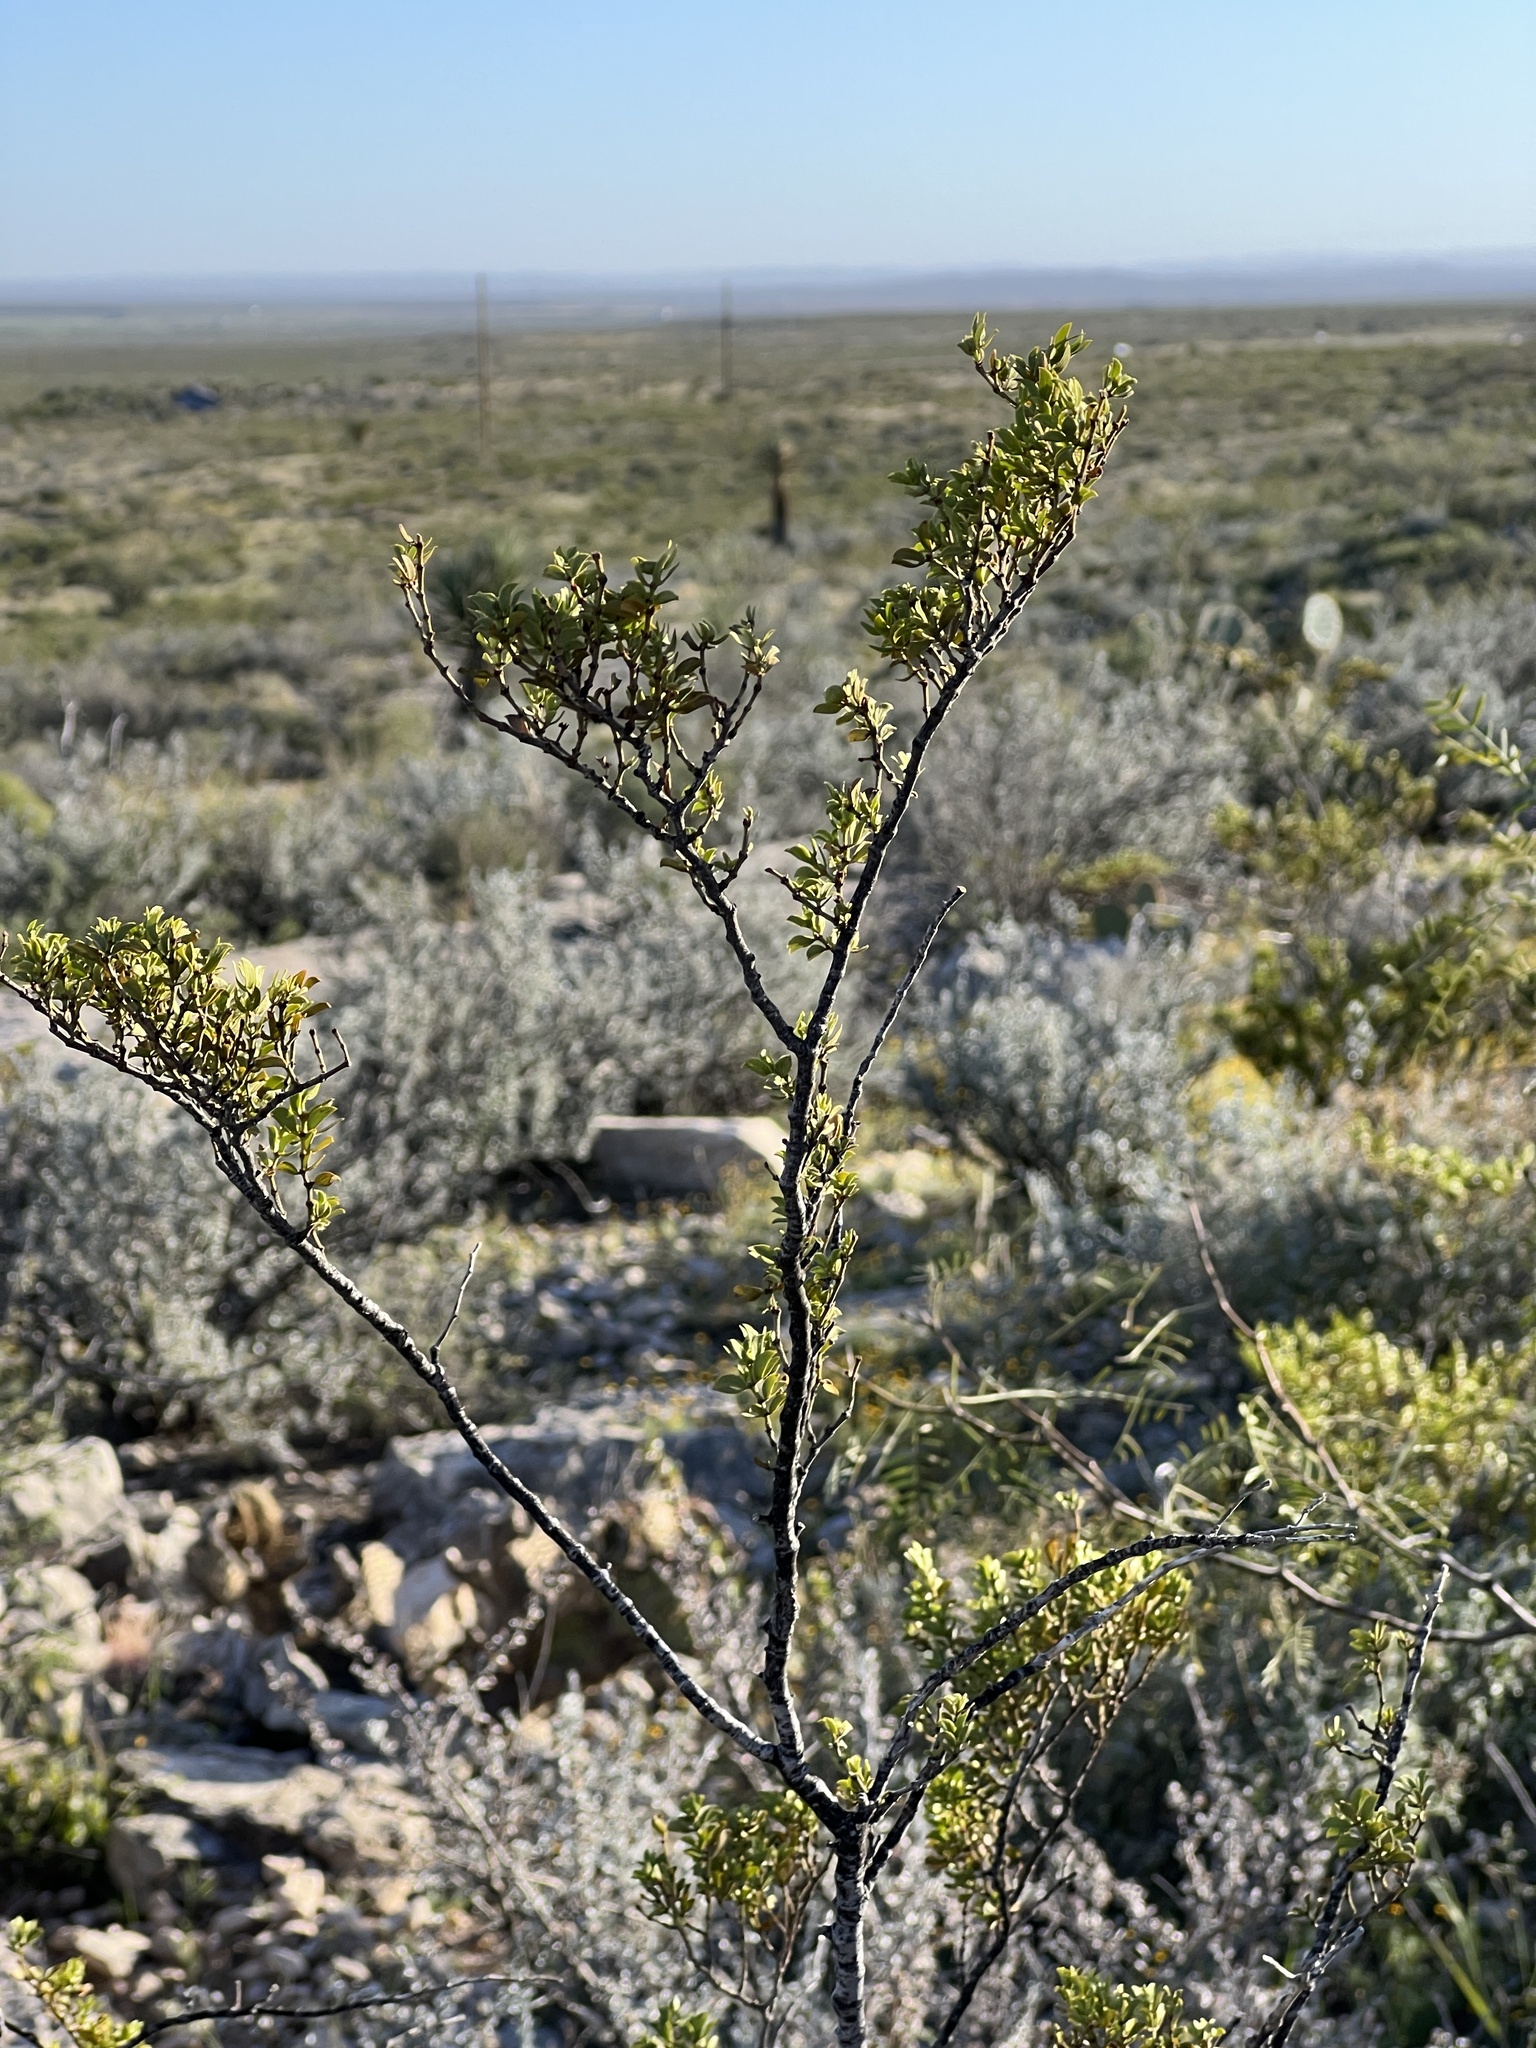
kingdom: Plantae
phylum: Tracheophyta
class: Magnoliopsida
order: Zygophyllales
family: Zygophyllaceae
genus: Larrea
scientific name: Larrea tridentata
